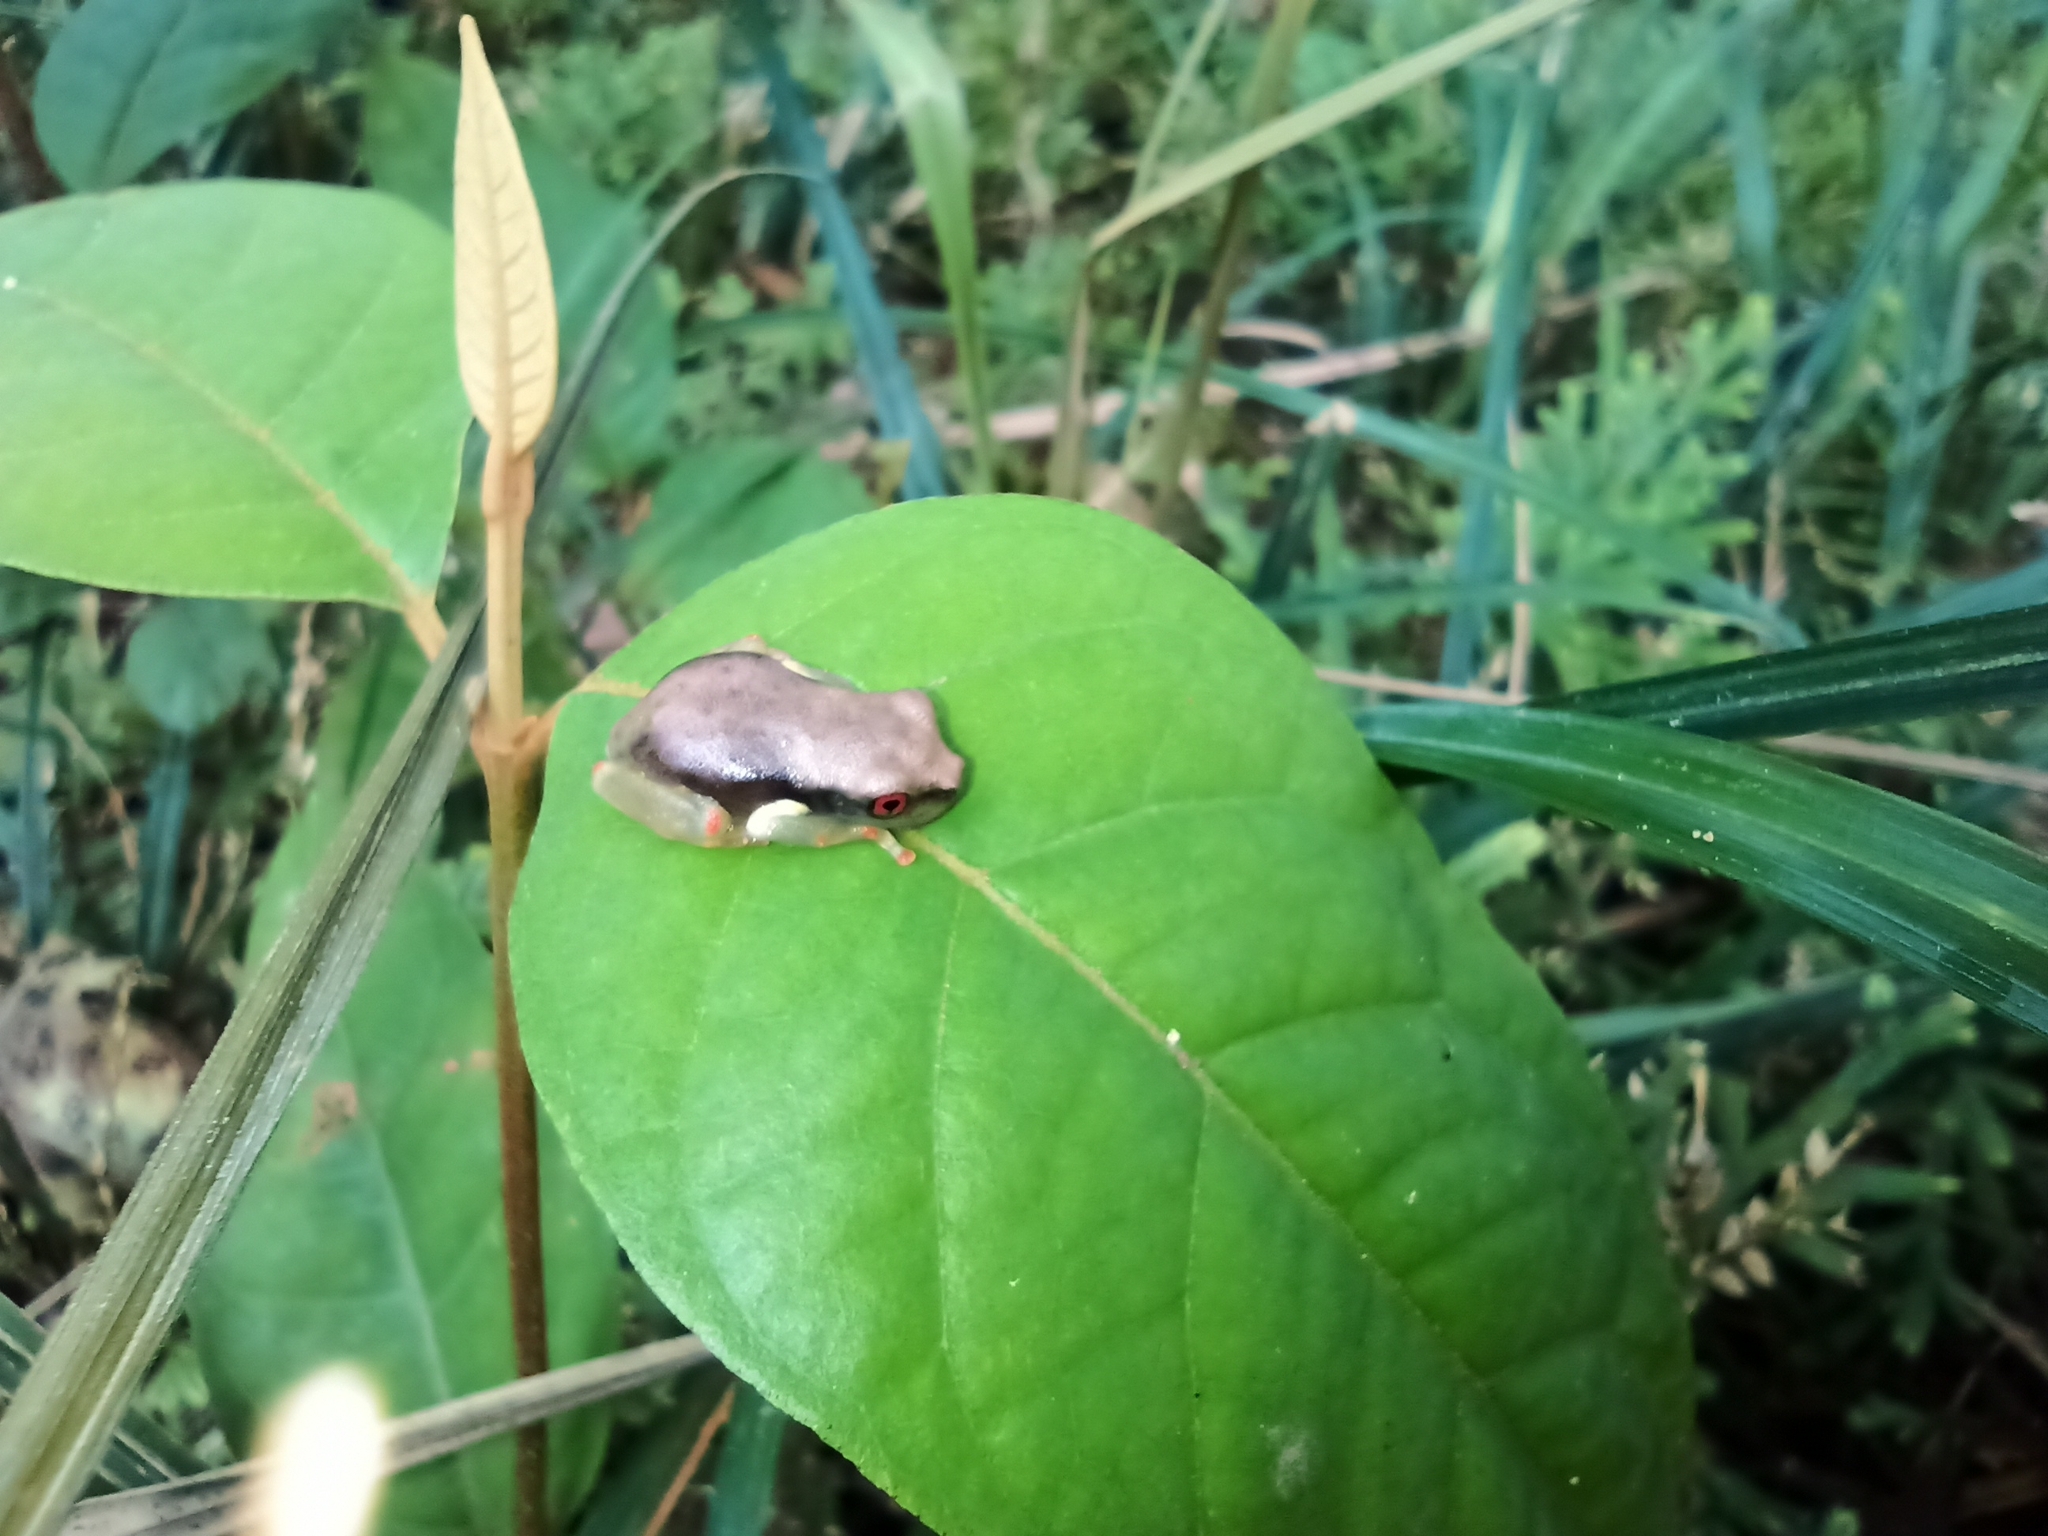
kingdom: Animalia
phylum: Chordata
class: Amphibia
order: Anura
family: Hylidae
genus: Osteocephalus
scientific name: Osteocephalus carri
